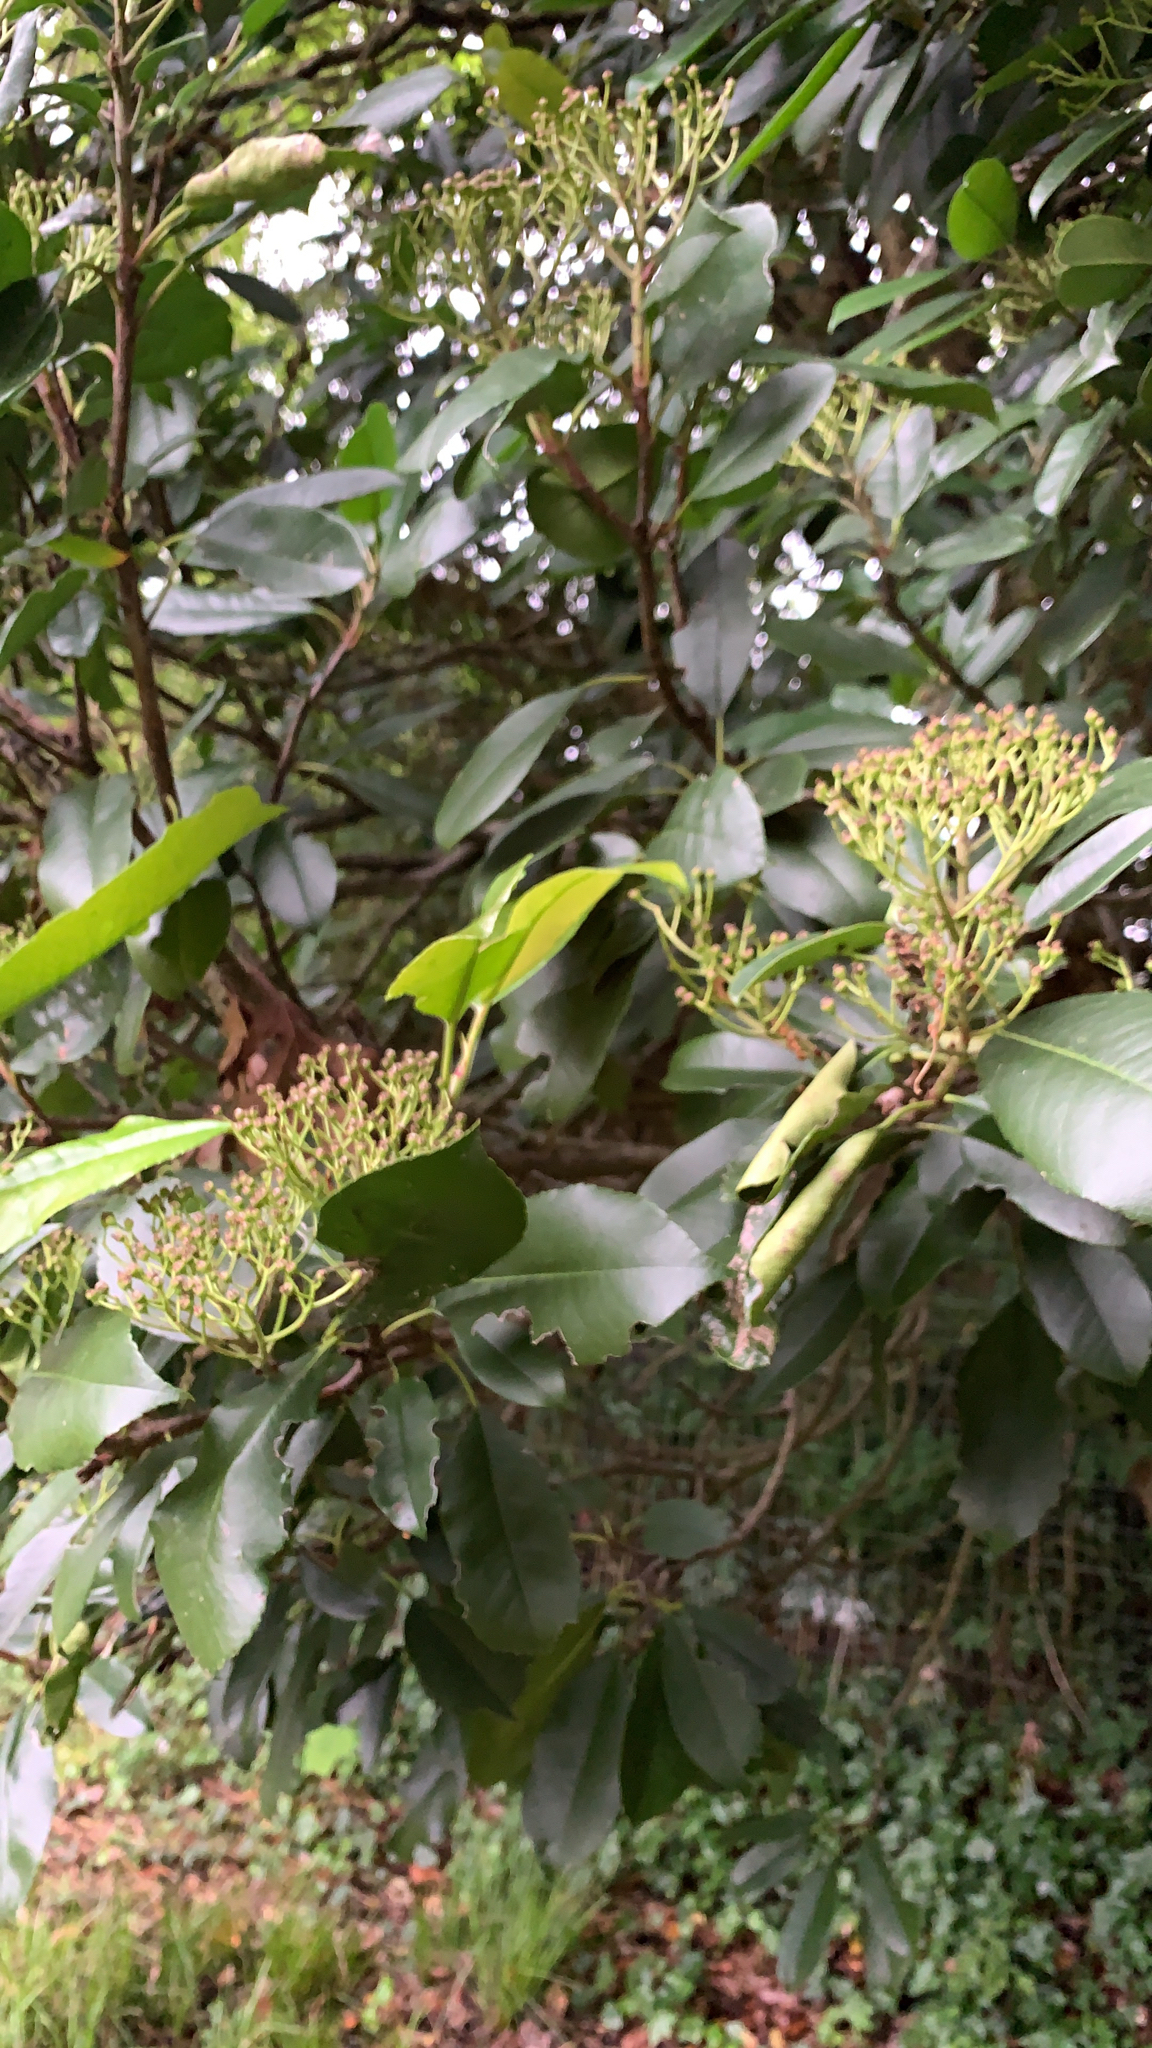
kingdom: Plantae
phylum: Tracheophyta
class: Magnoliopsida
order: Rosales
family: Rosaceae
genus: Photinia
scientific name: Photinia serratifolia
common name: Taiwanese photinia
